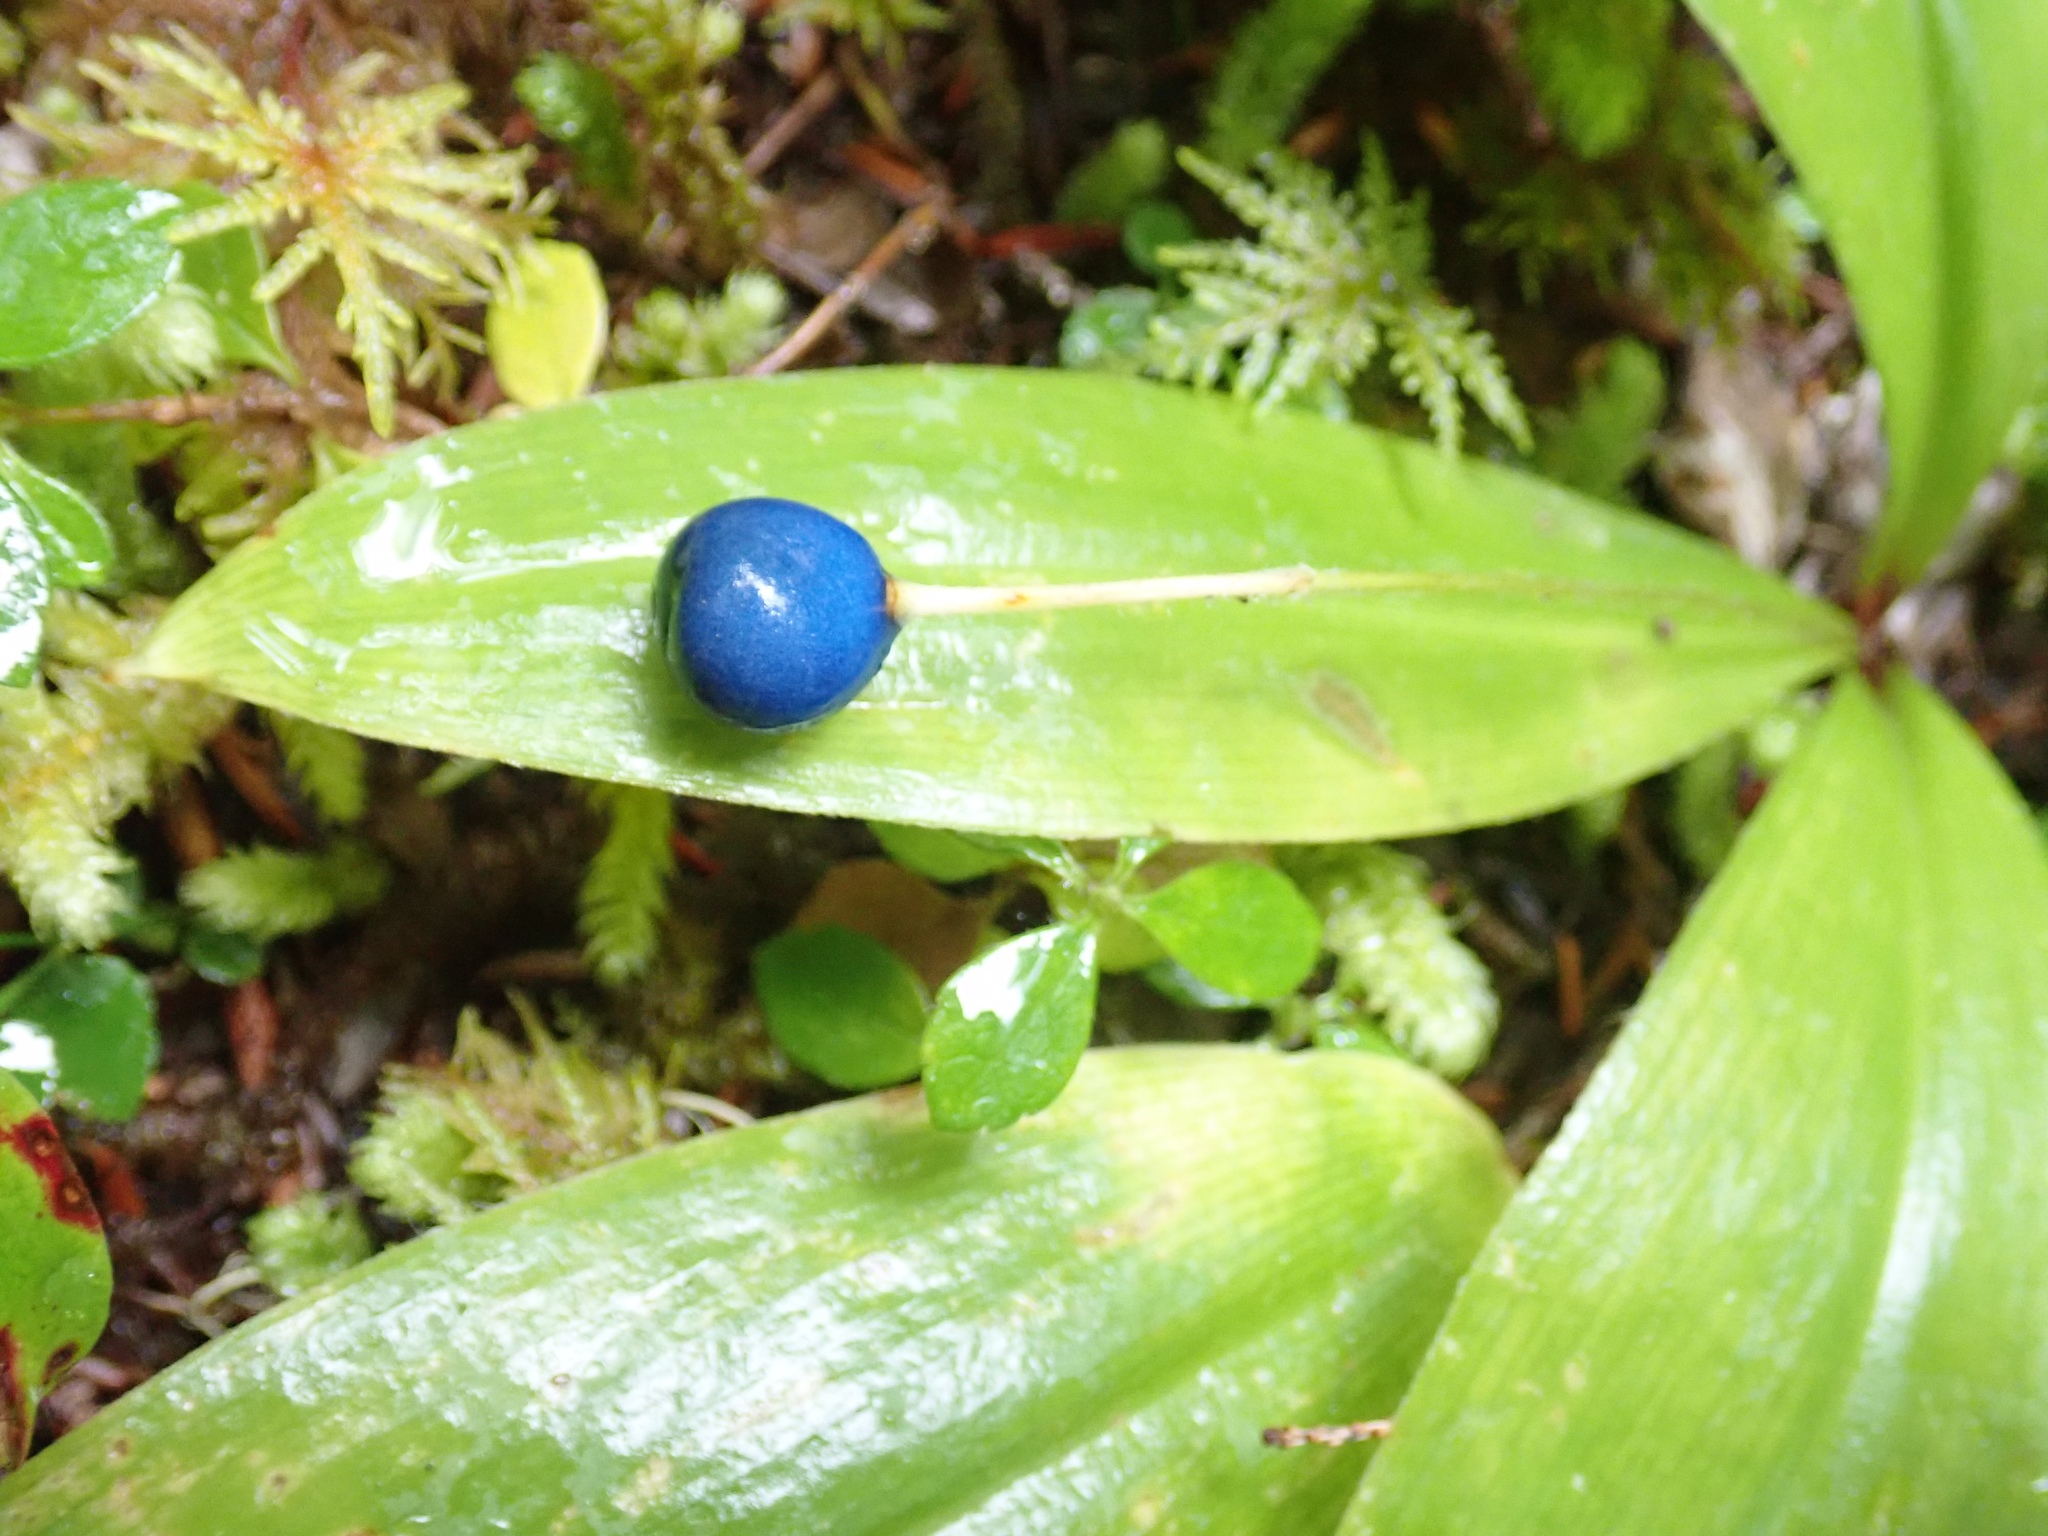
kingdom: Plantae
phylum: Tracheophyta
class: Liliopsida
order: Liliales
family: Liliaceae
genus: Clintonia
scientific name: Clintonia uniflora
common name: Queen's cup
